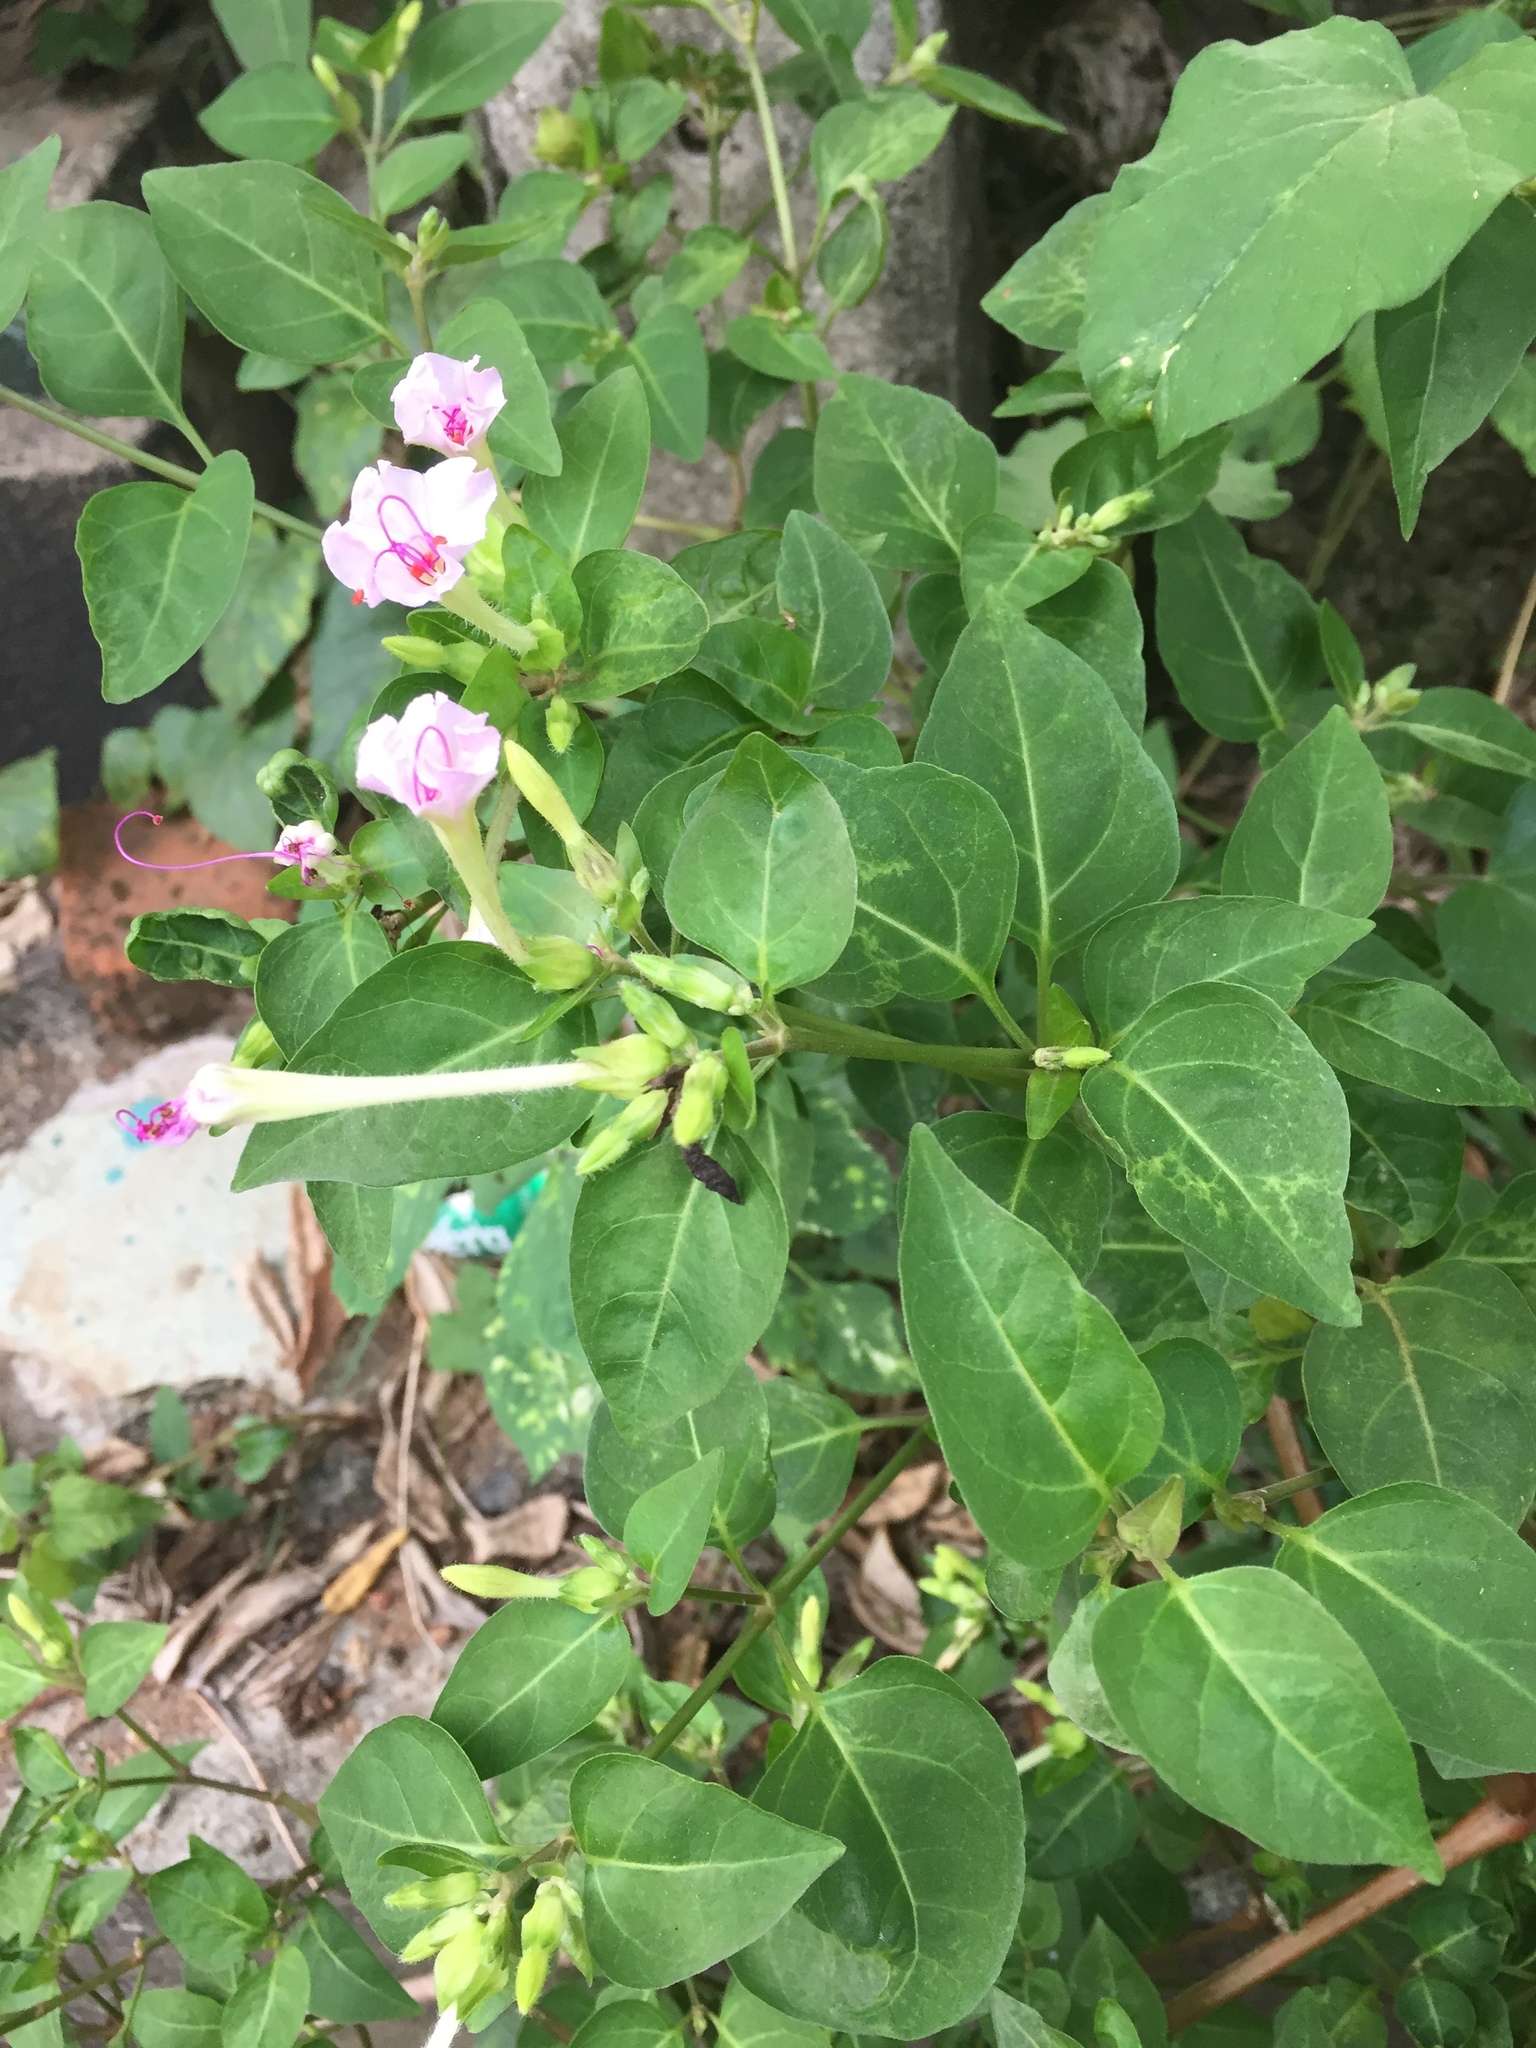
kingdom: Plantae
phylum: Tracheophyta
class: Magnoliopsida
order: Caryophyllales
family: Nyctaginaceae
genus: Mirabilis
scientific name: Mirabilis jalapa
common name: Marvel-of-peru
